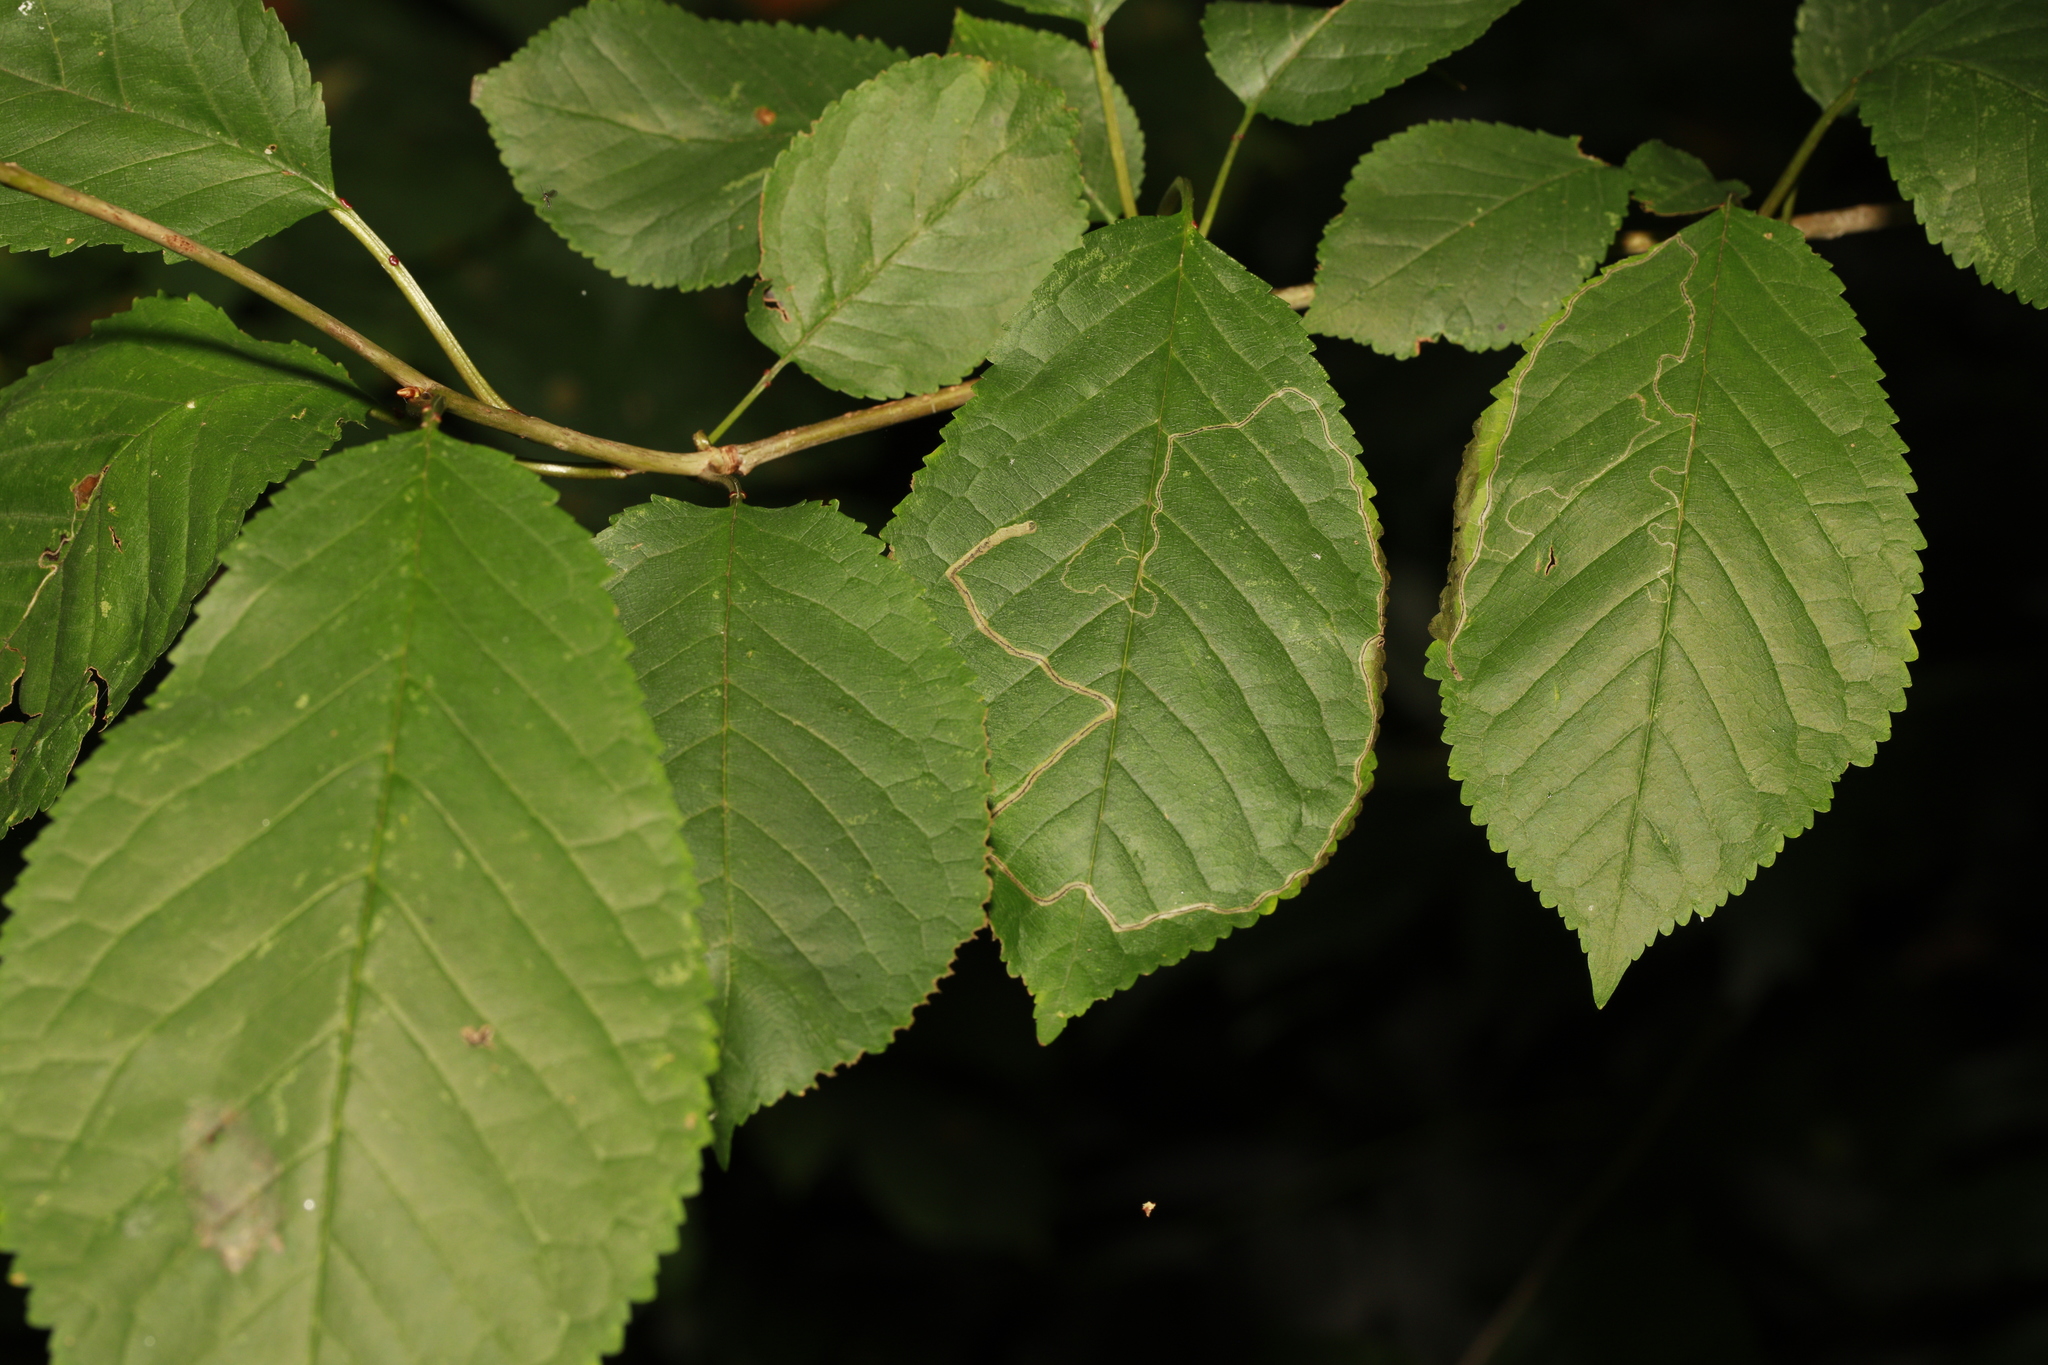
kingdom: Plantae
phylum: Tracheophyta
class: Magnoliopsida
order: Rosales
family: Rosaceae
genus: Prunus
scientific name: Prunus avium
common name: Sweet cherry
